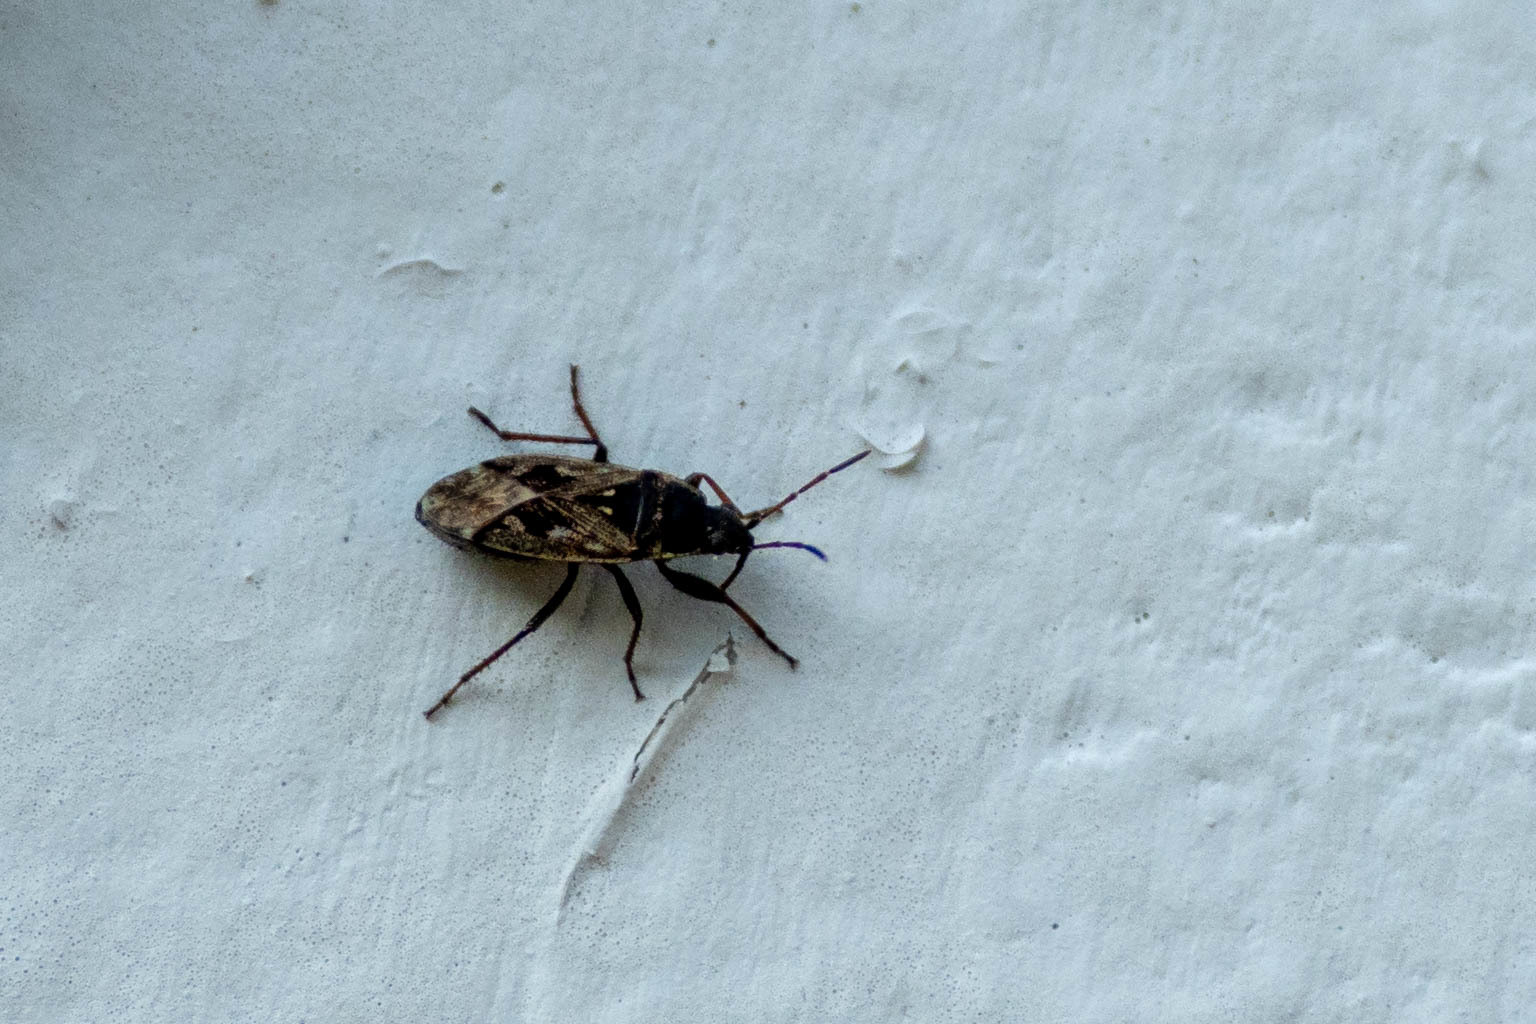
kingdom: Animalia
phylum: Arthropoda
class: Insecta
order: Hemiptera
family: Rhyparochromidae
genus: Sphragisticus
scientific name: Sphragisticus nebulosus
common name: Dirt-colored seed bug
